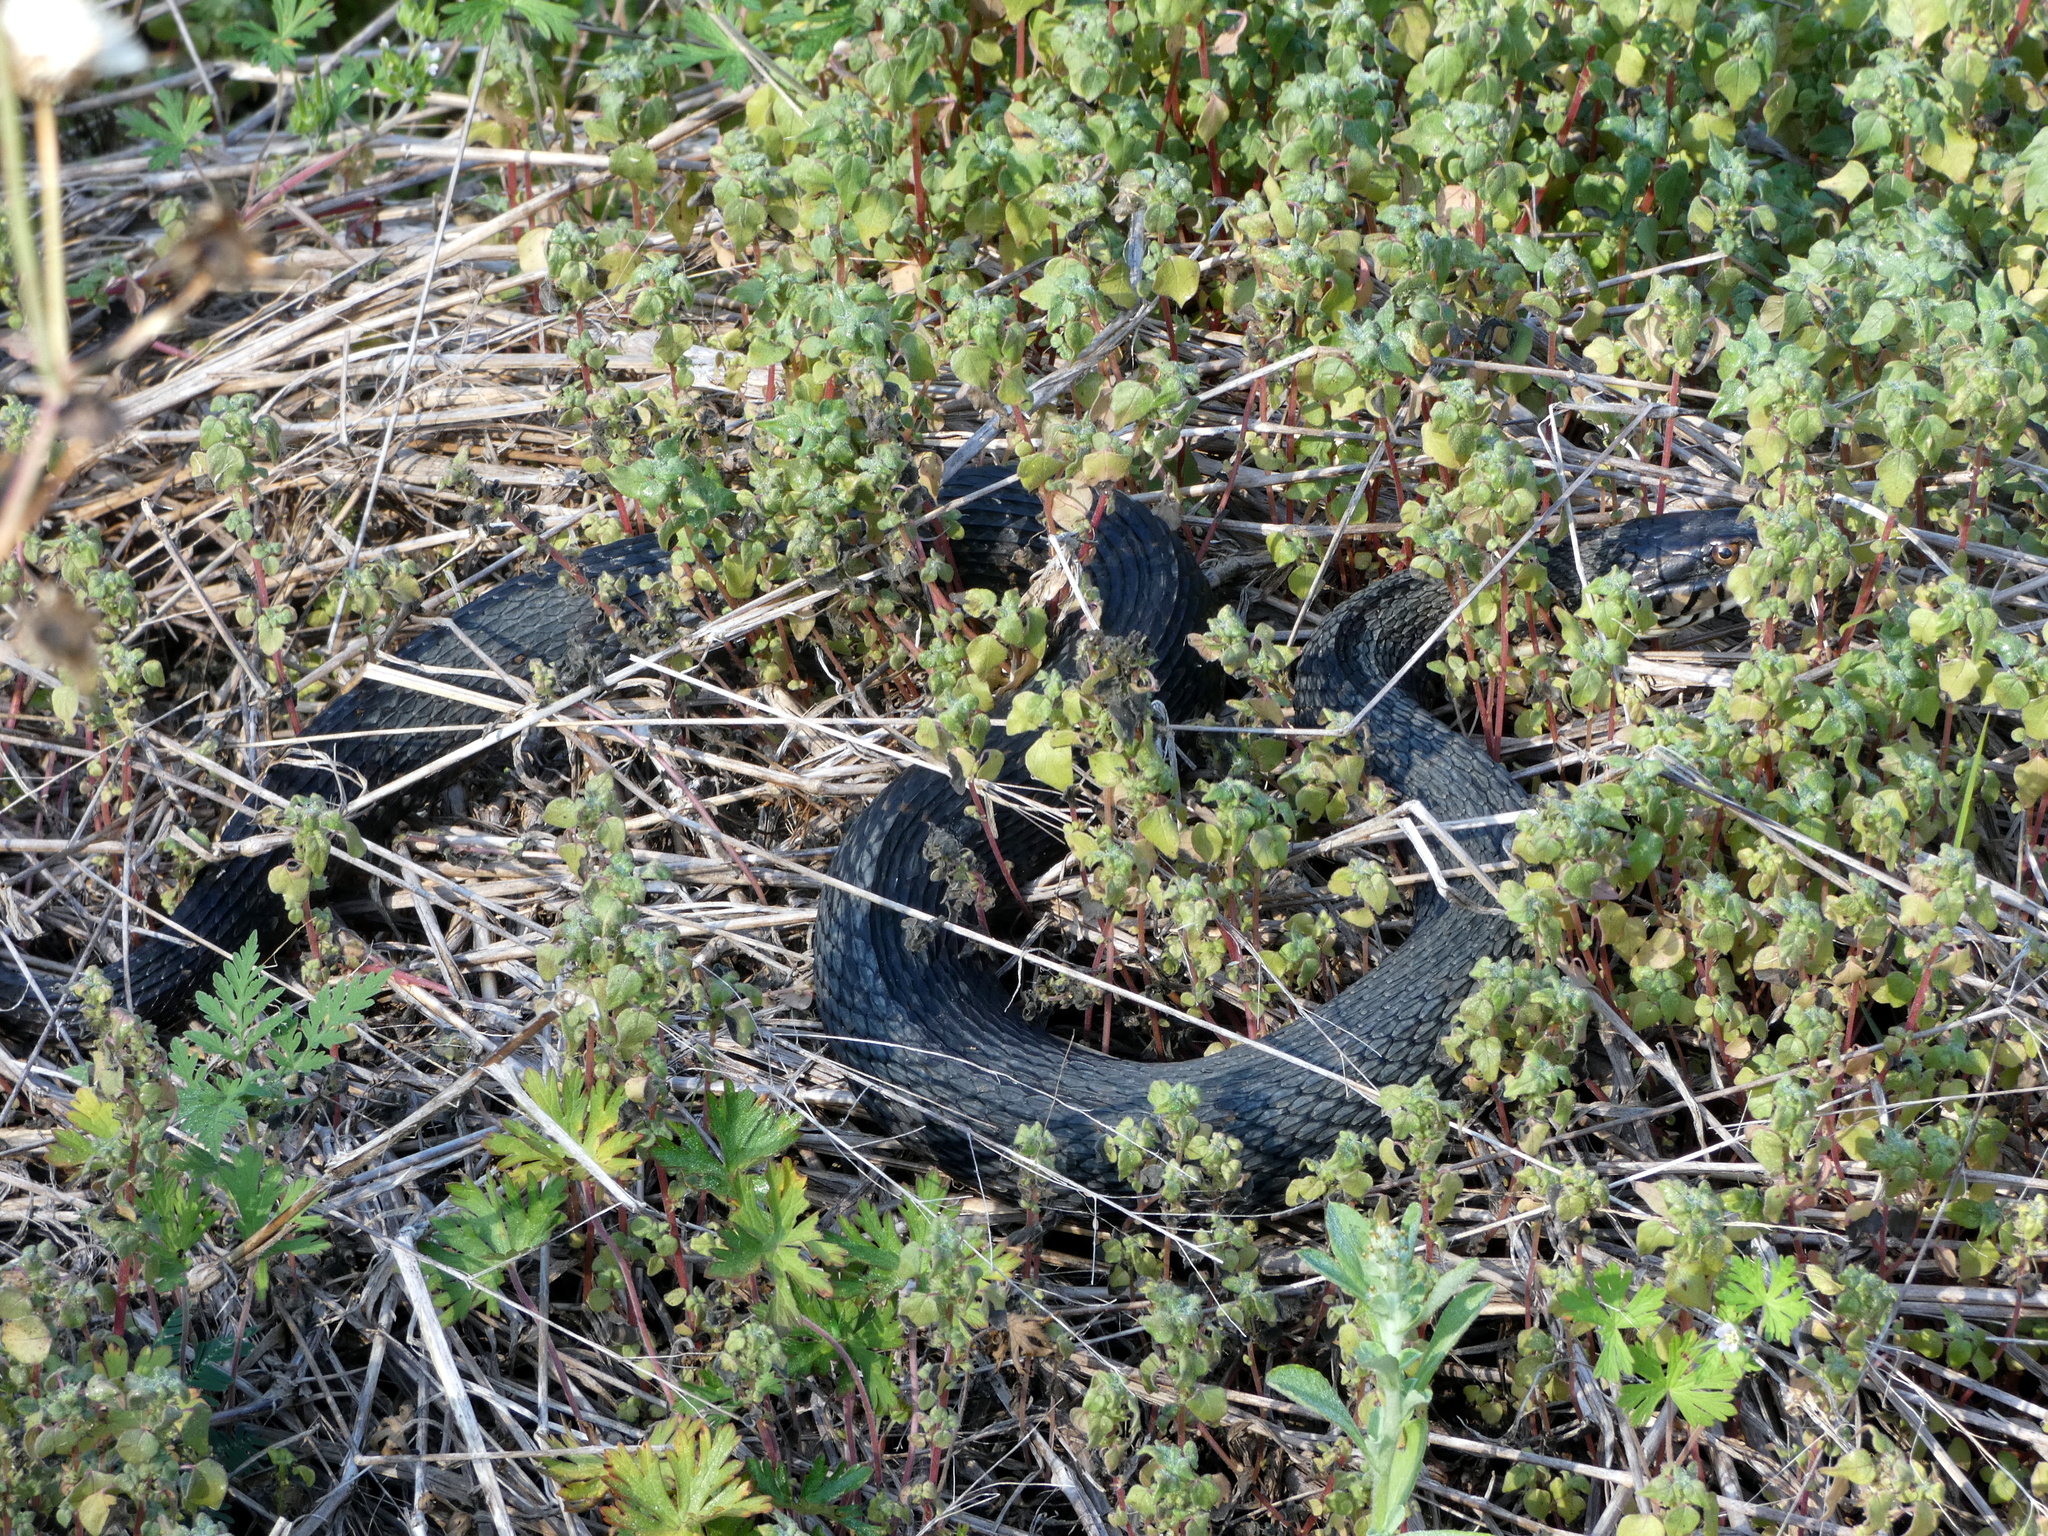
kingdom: Animalia
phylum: Chordata
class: Squamata
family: Colubridae
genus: Nerodia
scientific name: Nerodia fasciata
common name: Southern water snake
